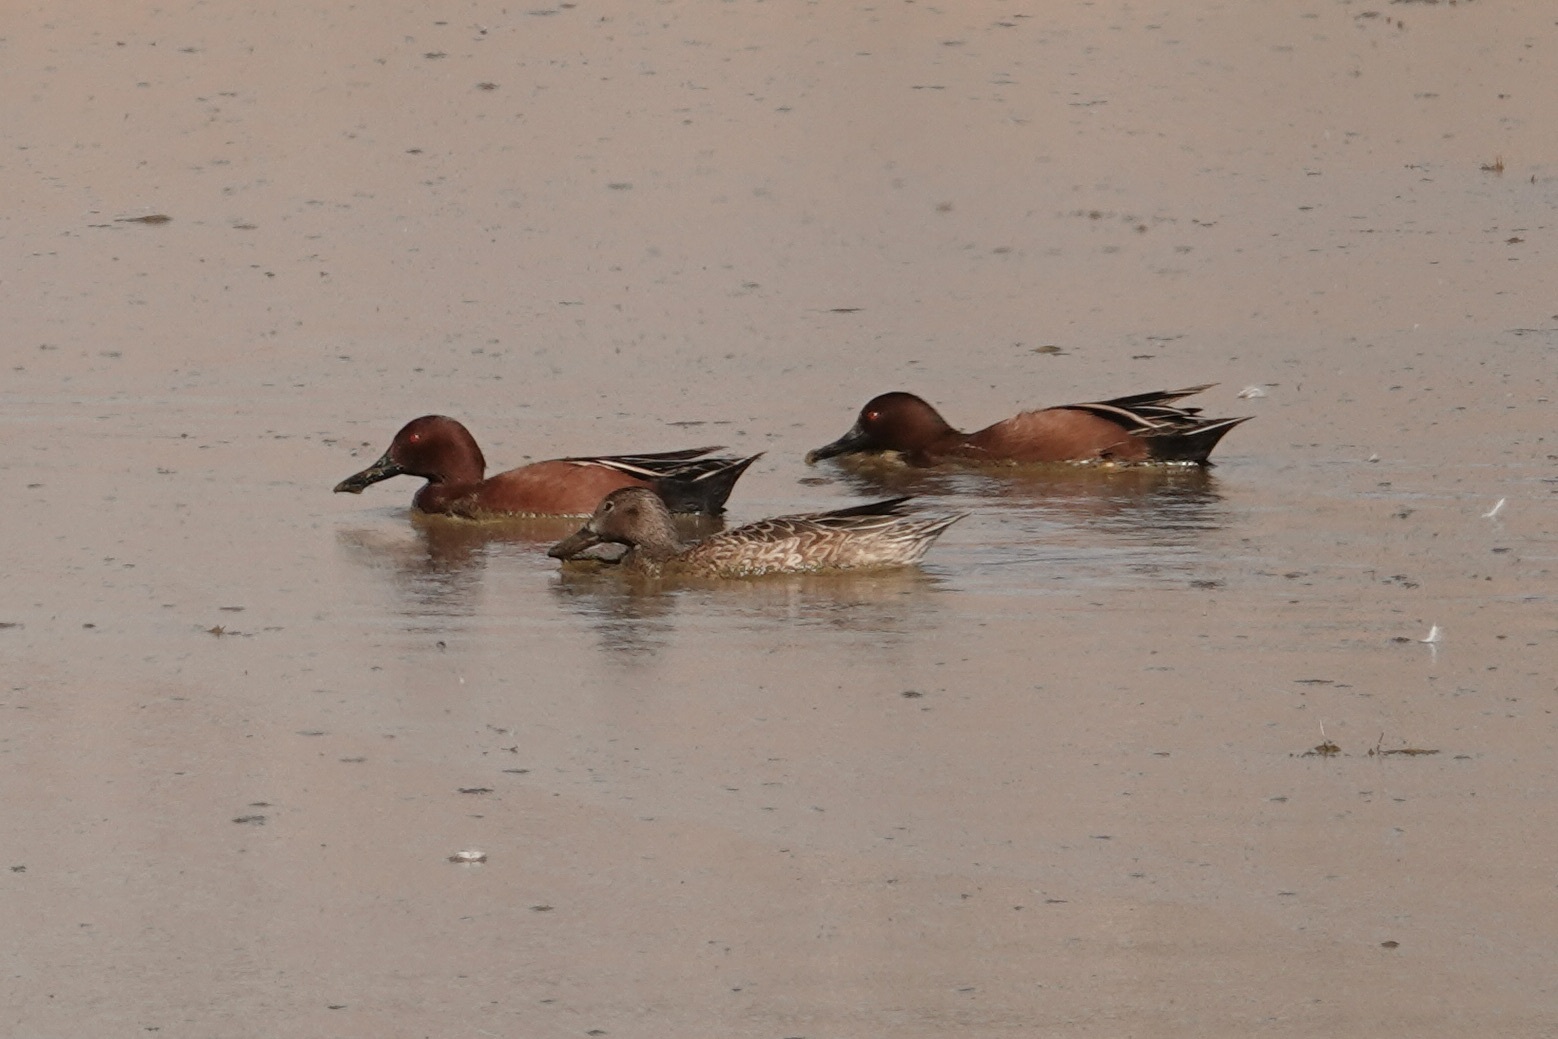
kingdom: Animalia
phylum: Chordata
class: Aves
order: Anseriformes
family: Anatidae
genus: Spatula
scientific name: Spatula cyanoptera
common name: Cinnamon teal
